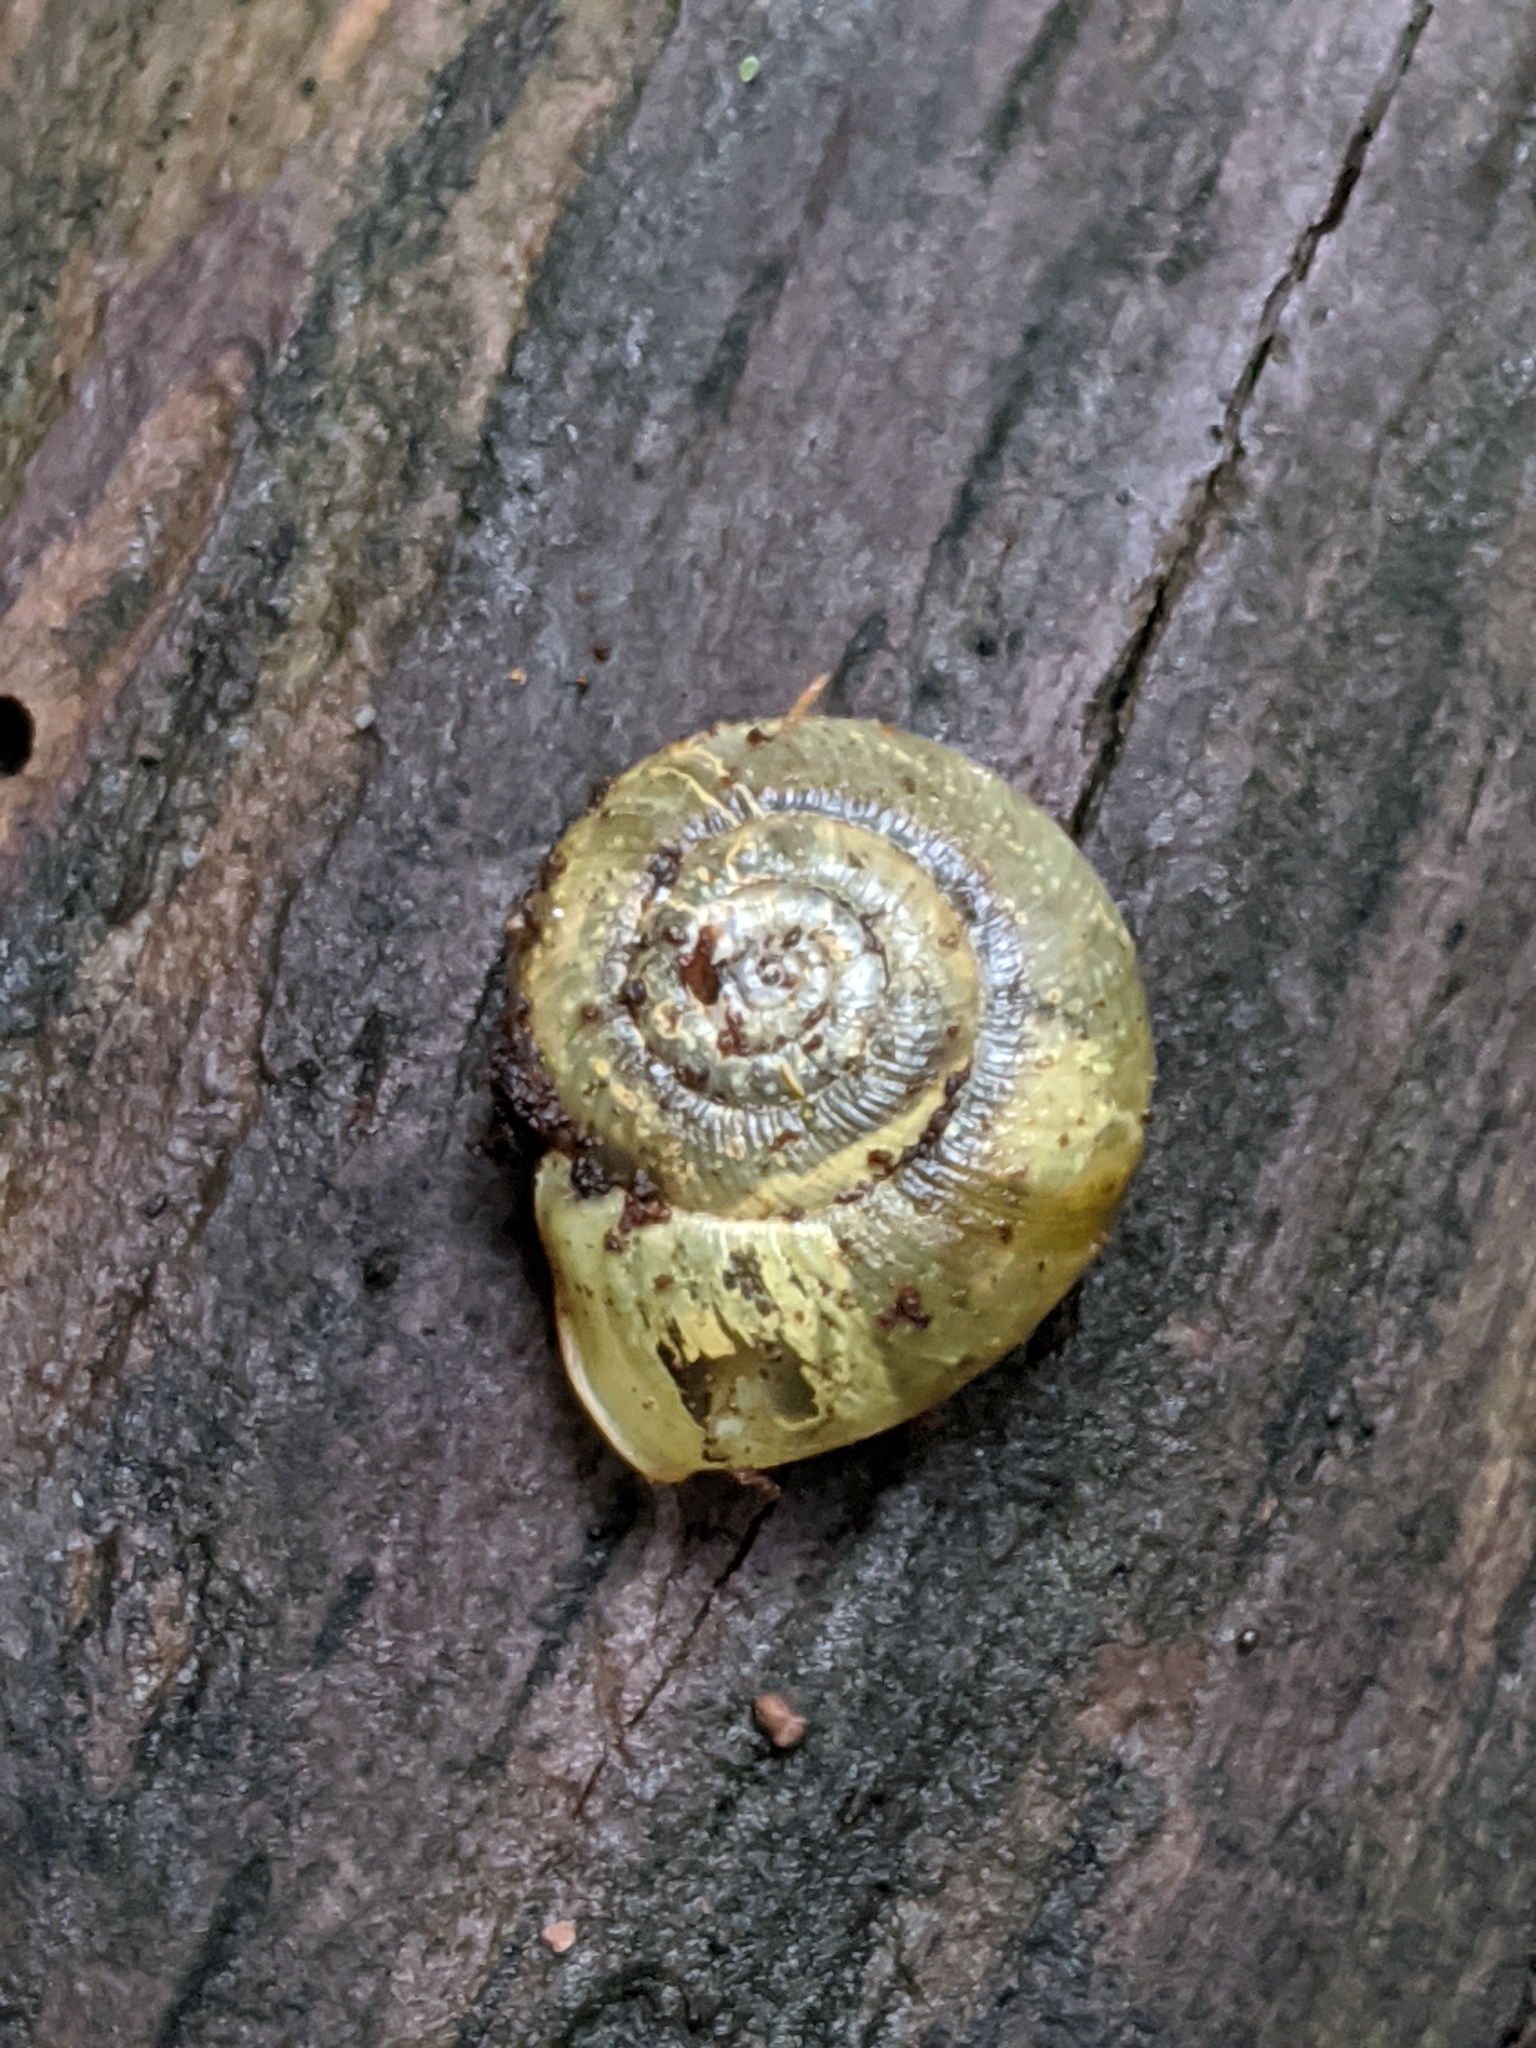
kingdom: Animalia
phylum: Mollusca
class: Gastropoda
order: Stylommatophora
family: Haplotrematidae
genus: Ancotrema
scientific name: Ancotrema sportella
